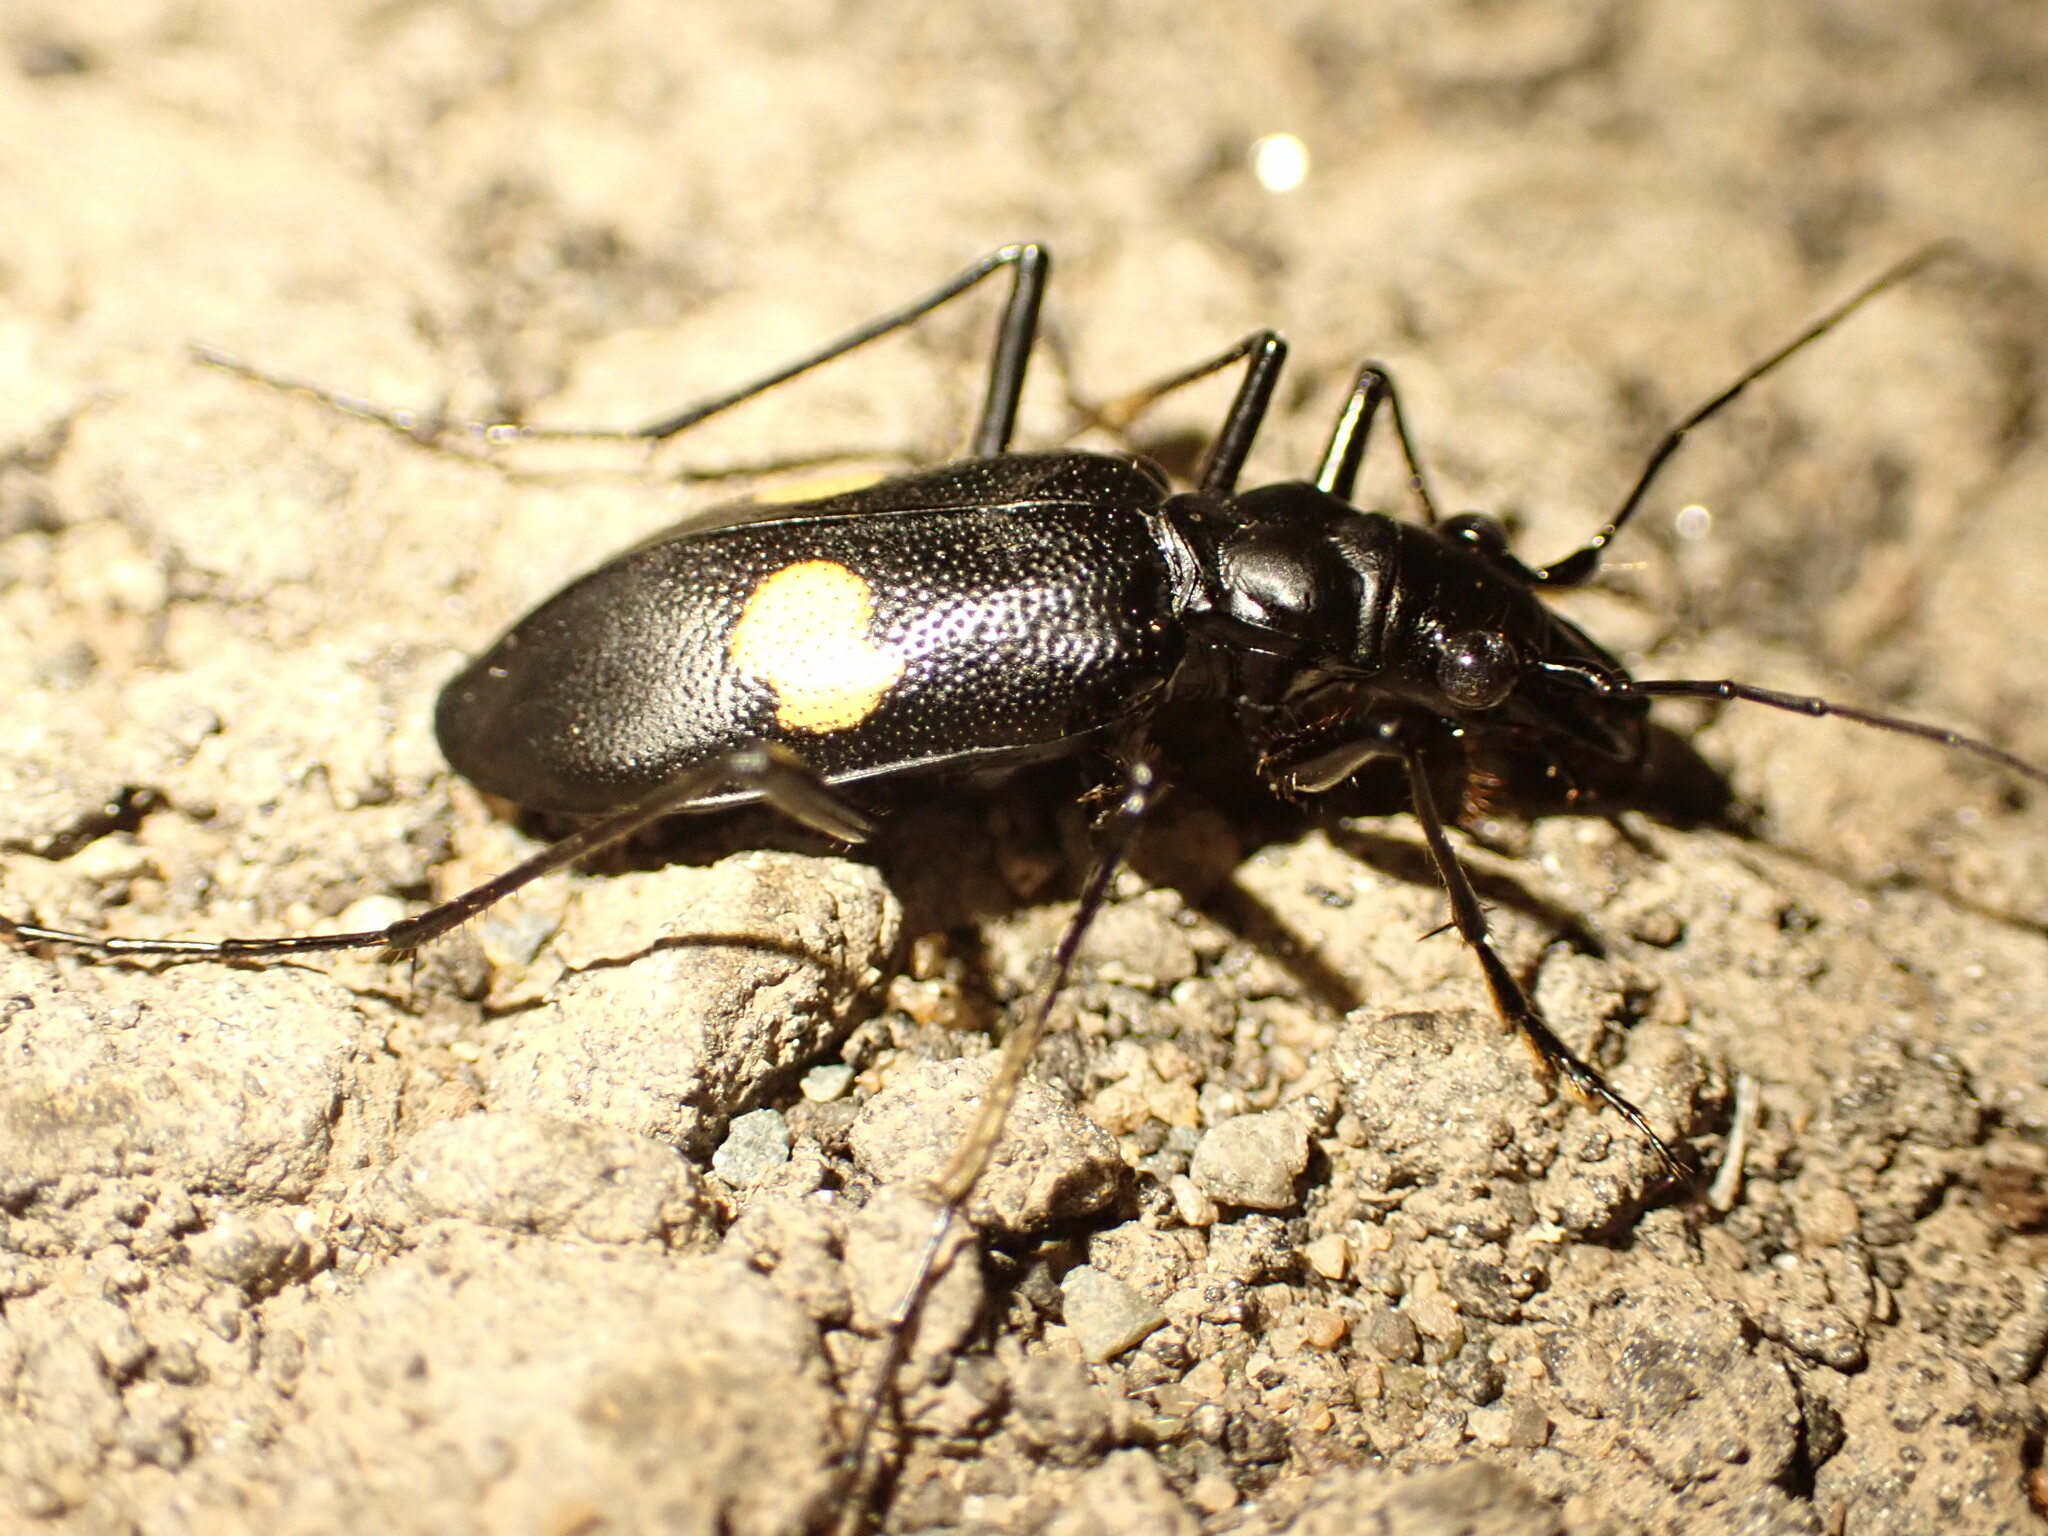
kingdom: Animalia
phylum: Arthropoda
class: Insecta
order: Coleoptera
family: Carabidae
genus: Oxycheila
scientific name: Oxycheila tristis
